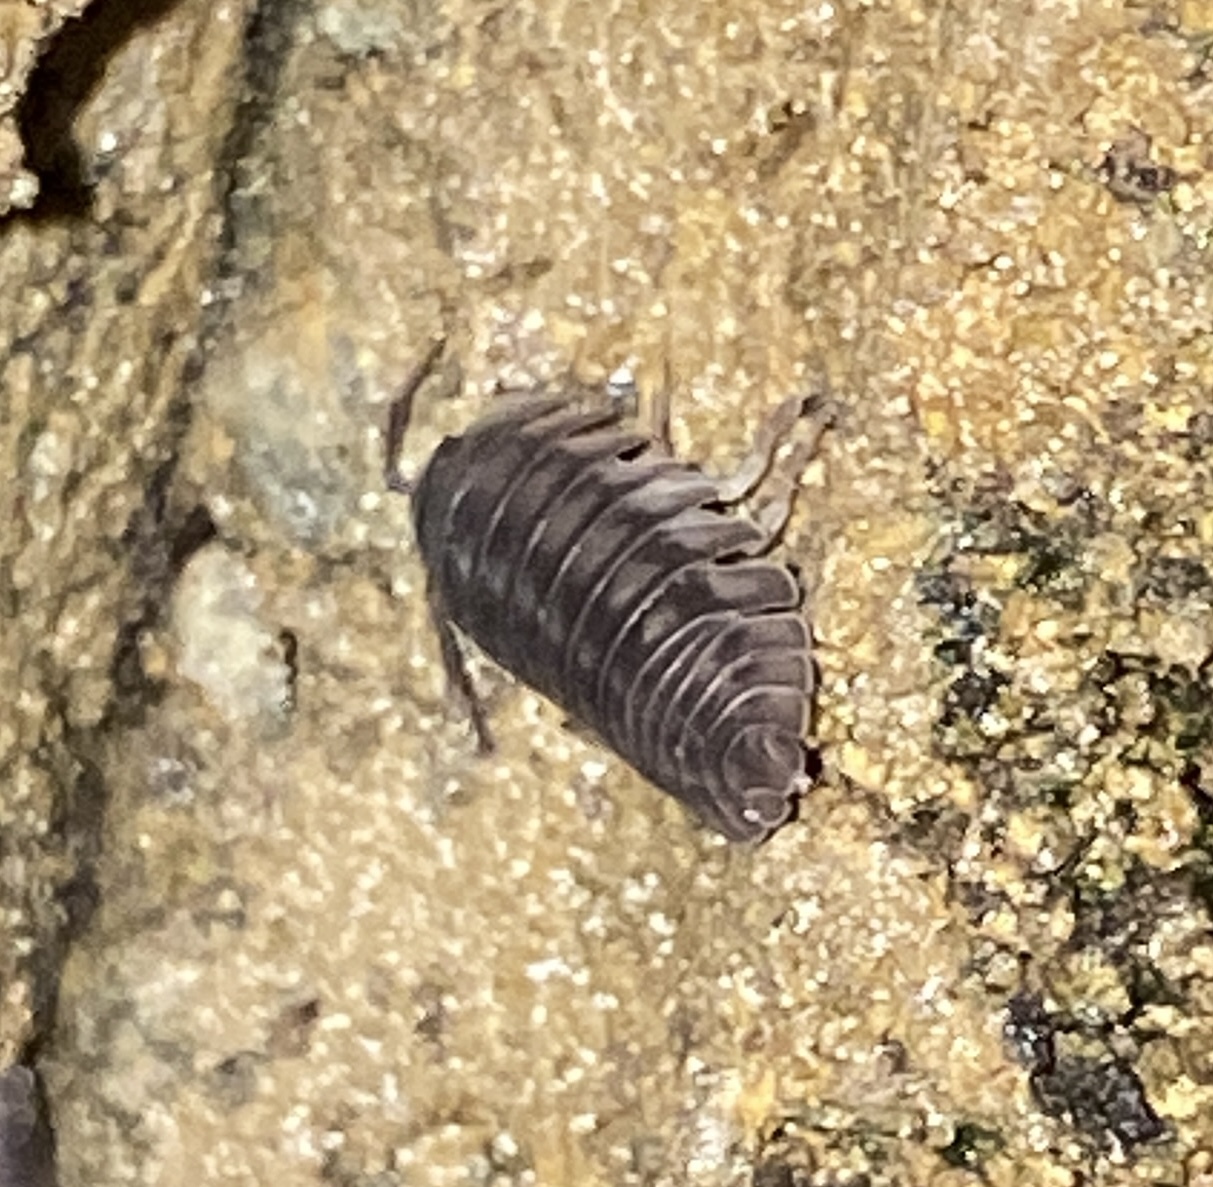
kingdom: Animalia
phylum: Arthropoda
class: Malacostraca
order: Isopoda
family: Armadillidiidae
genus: Armadillidium
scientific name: Armadillidium nasatum
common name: Isopod
